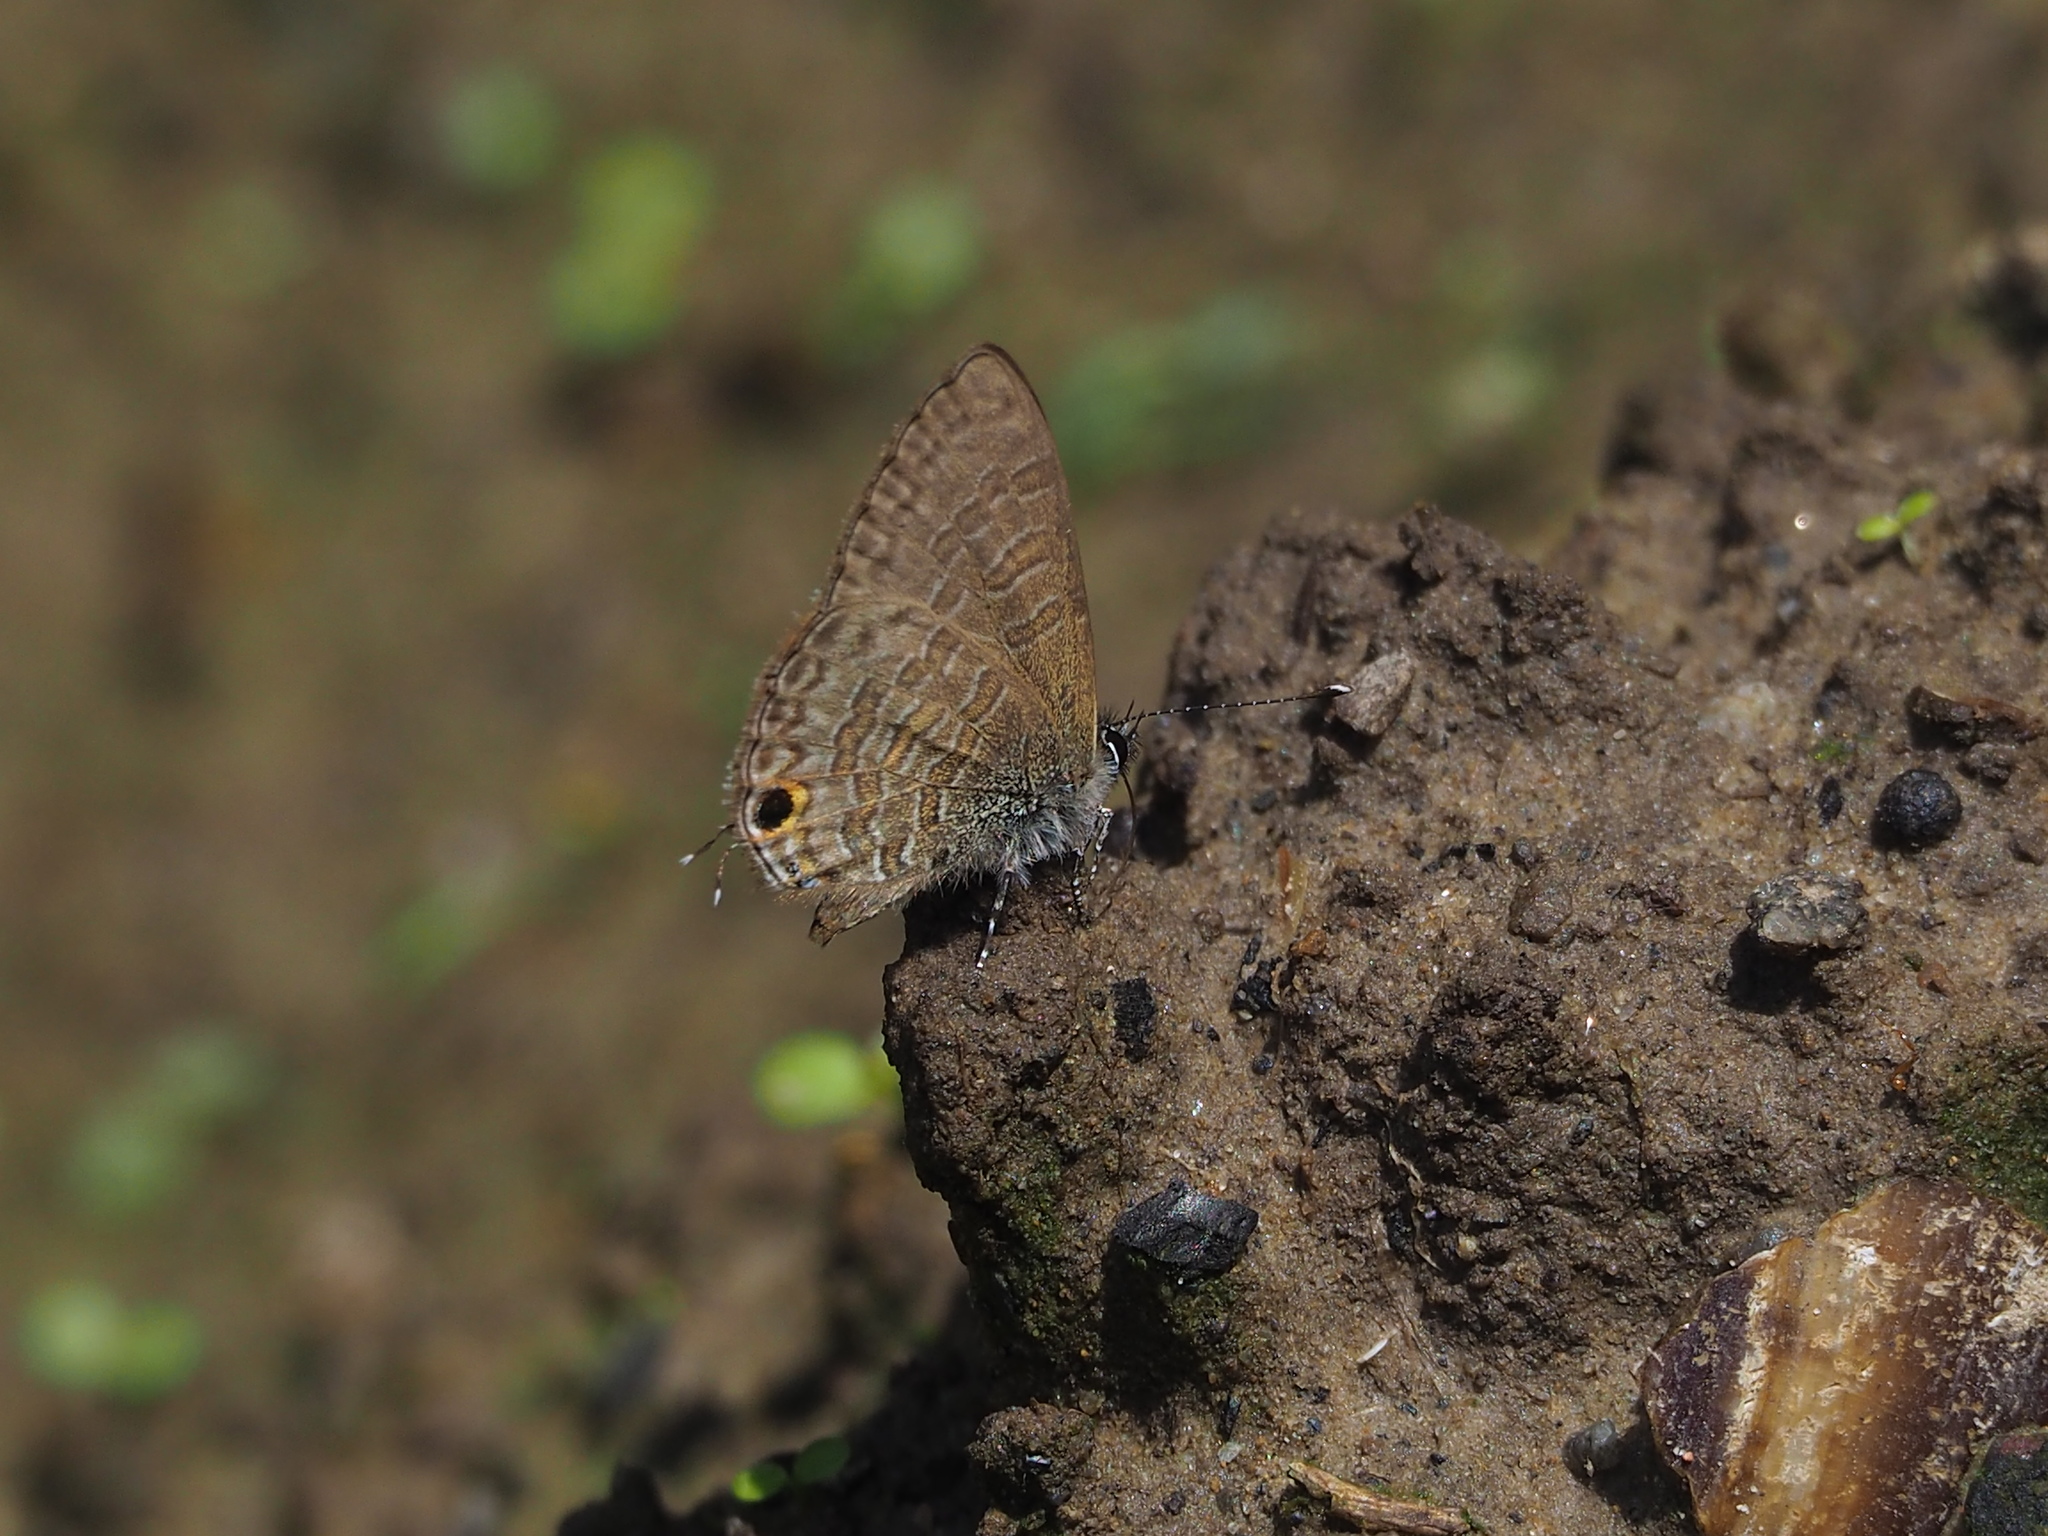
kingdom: Animalia
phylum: Arthropoda
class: Insecta
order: Lepidoptera
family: Lycaenidae
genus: Prosotas
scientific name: Prosotas nora
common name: Common line blue
